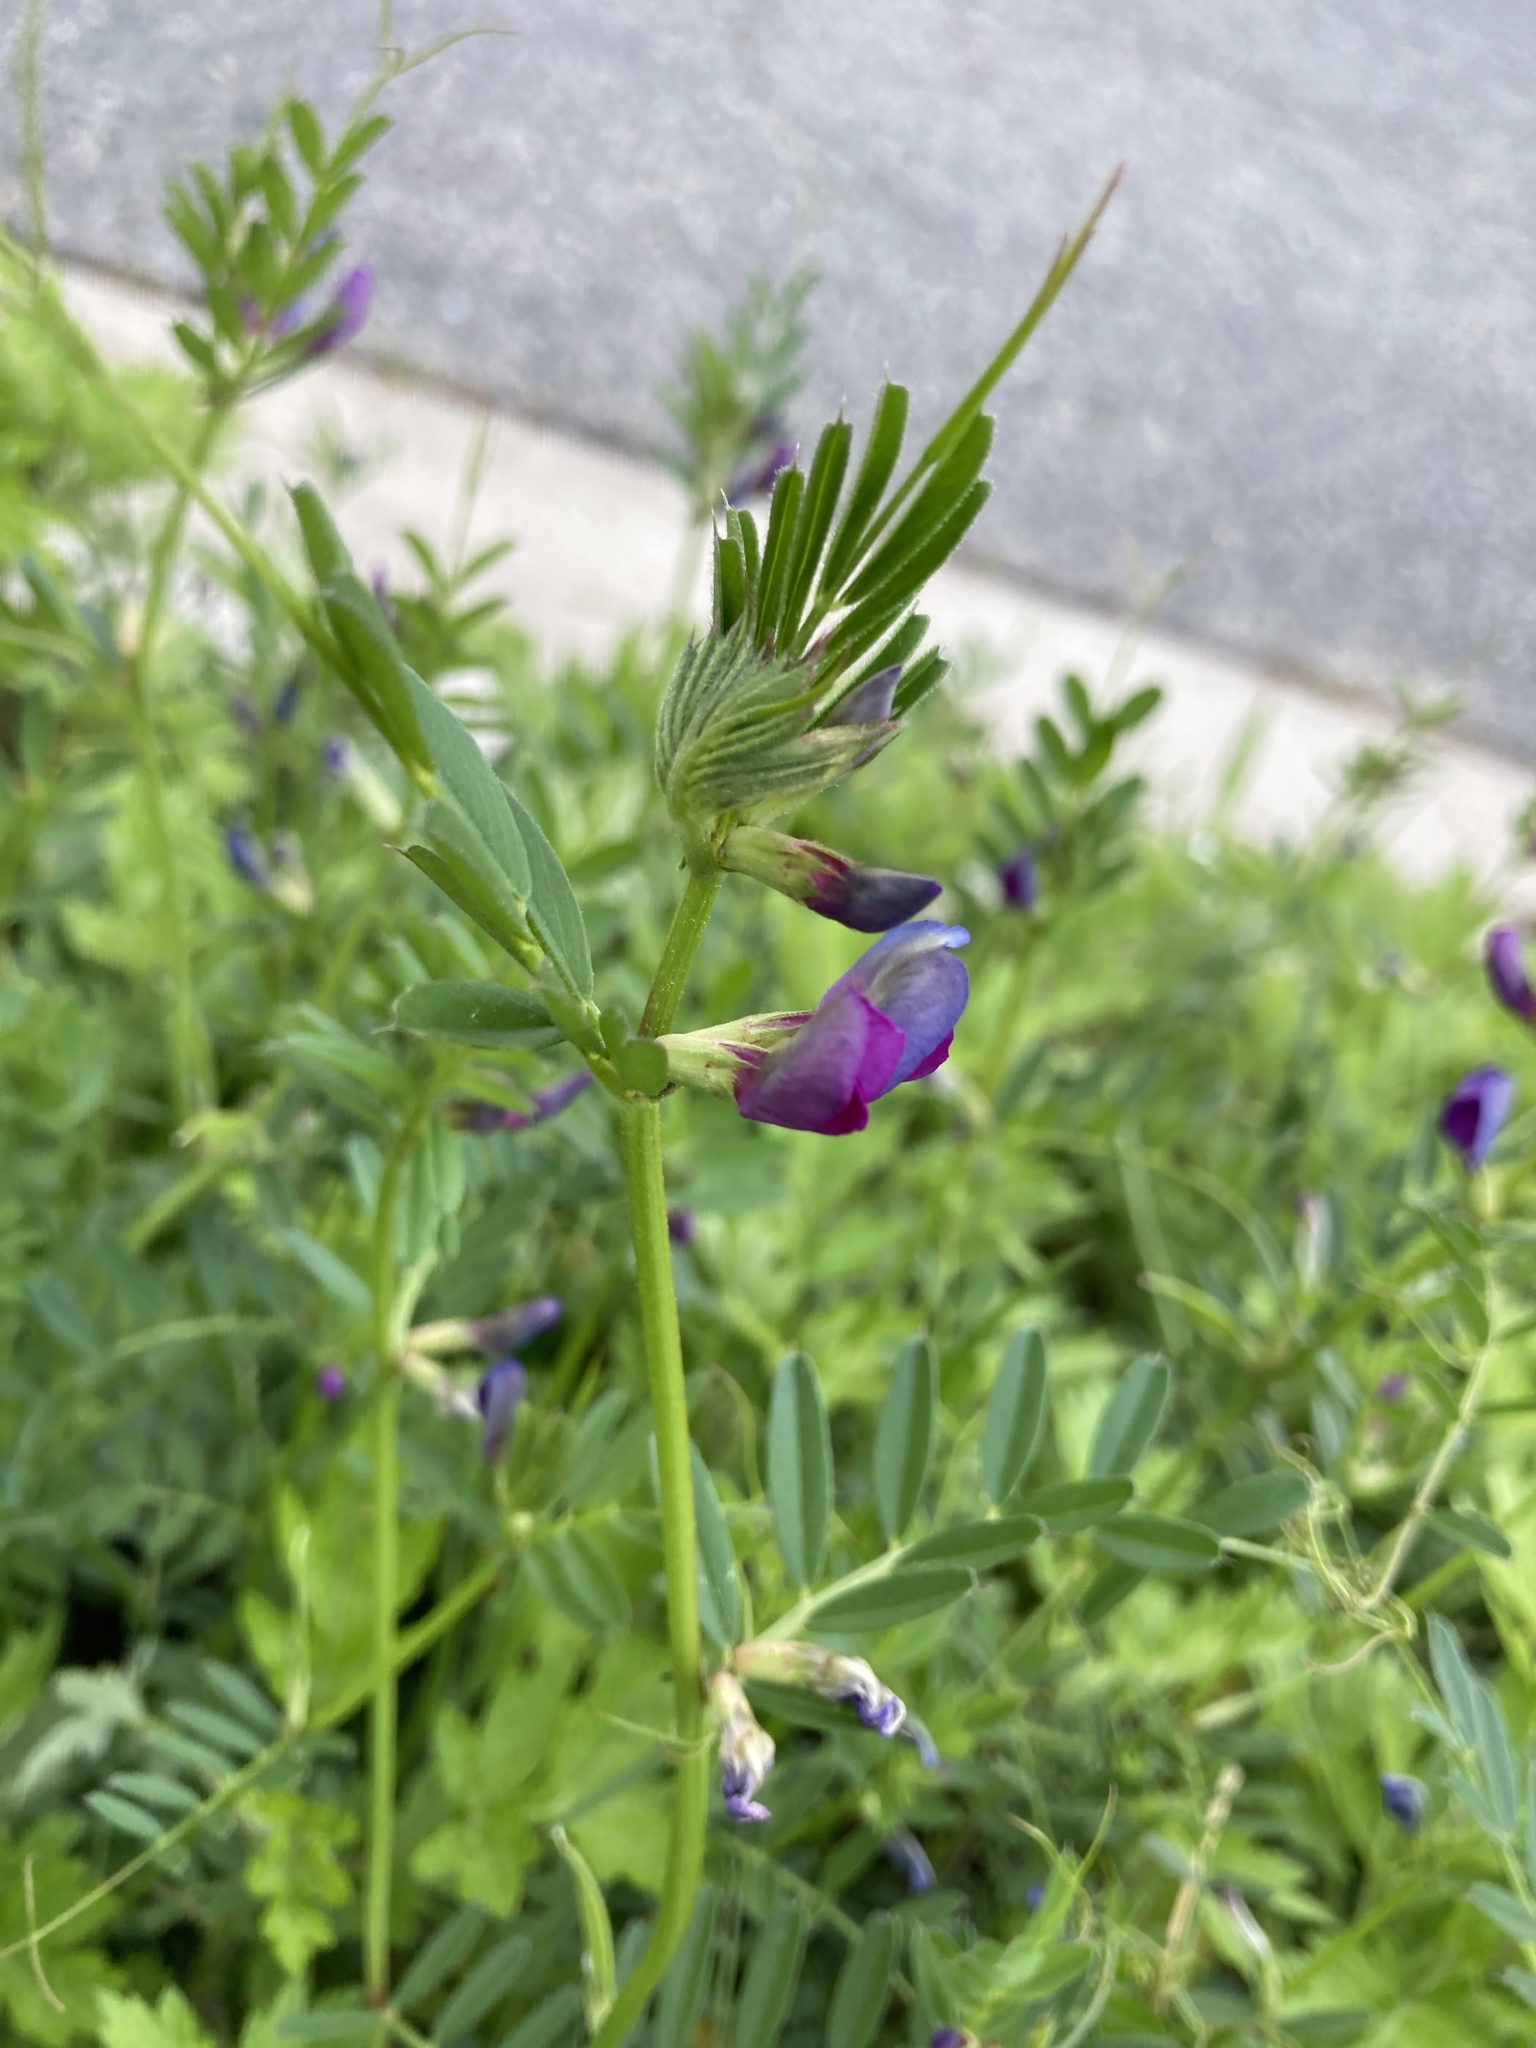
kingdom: Plantae
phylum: Tracheophyta
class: Magnoliopsida
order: Fabales
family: Fabaceae
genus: Vicia
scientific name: Vicia sativa
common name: Garden vetch
